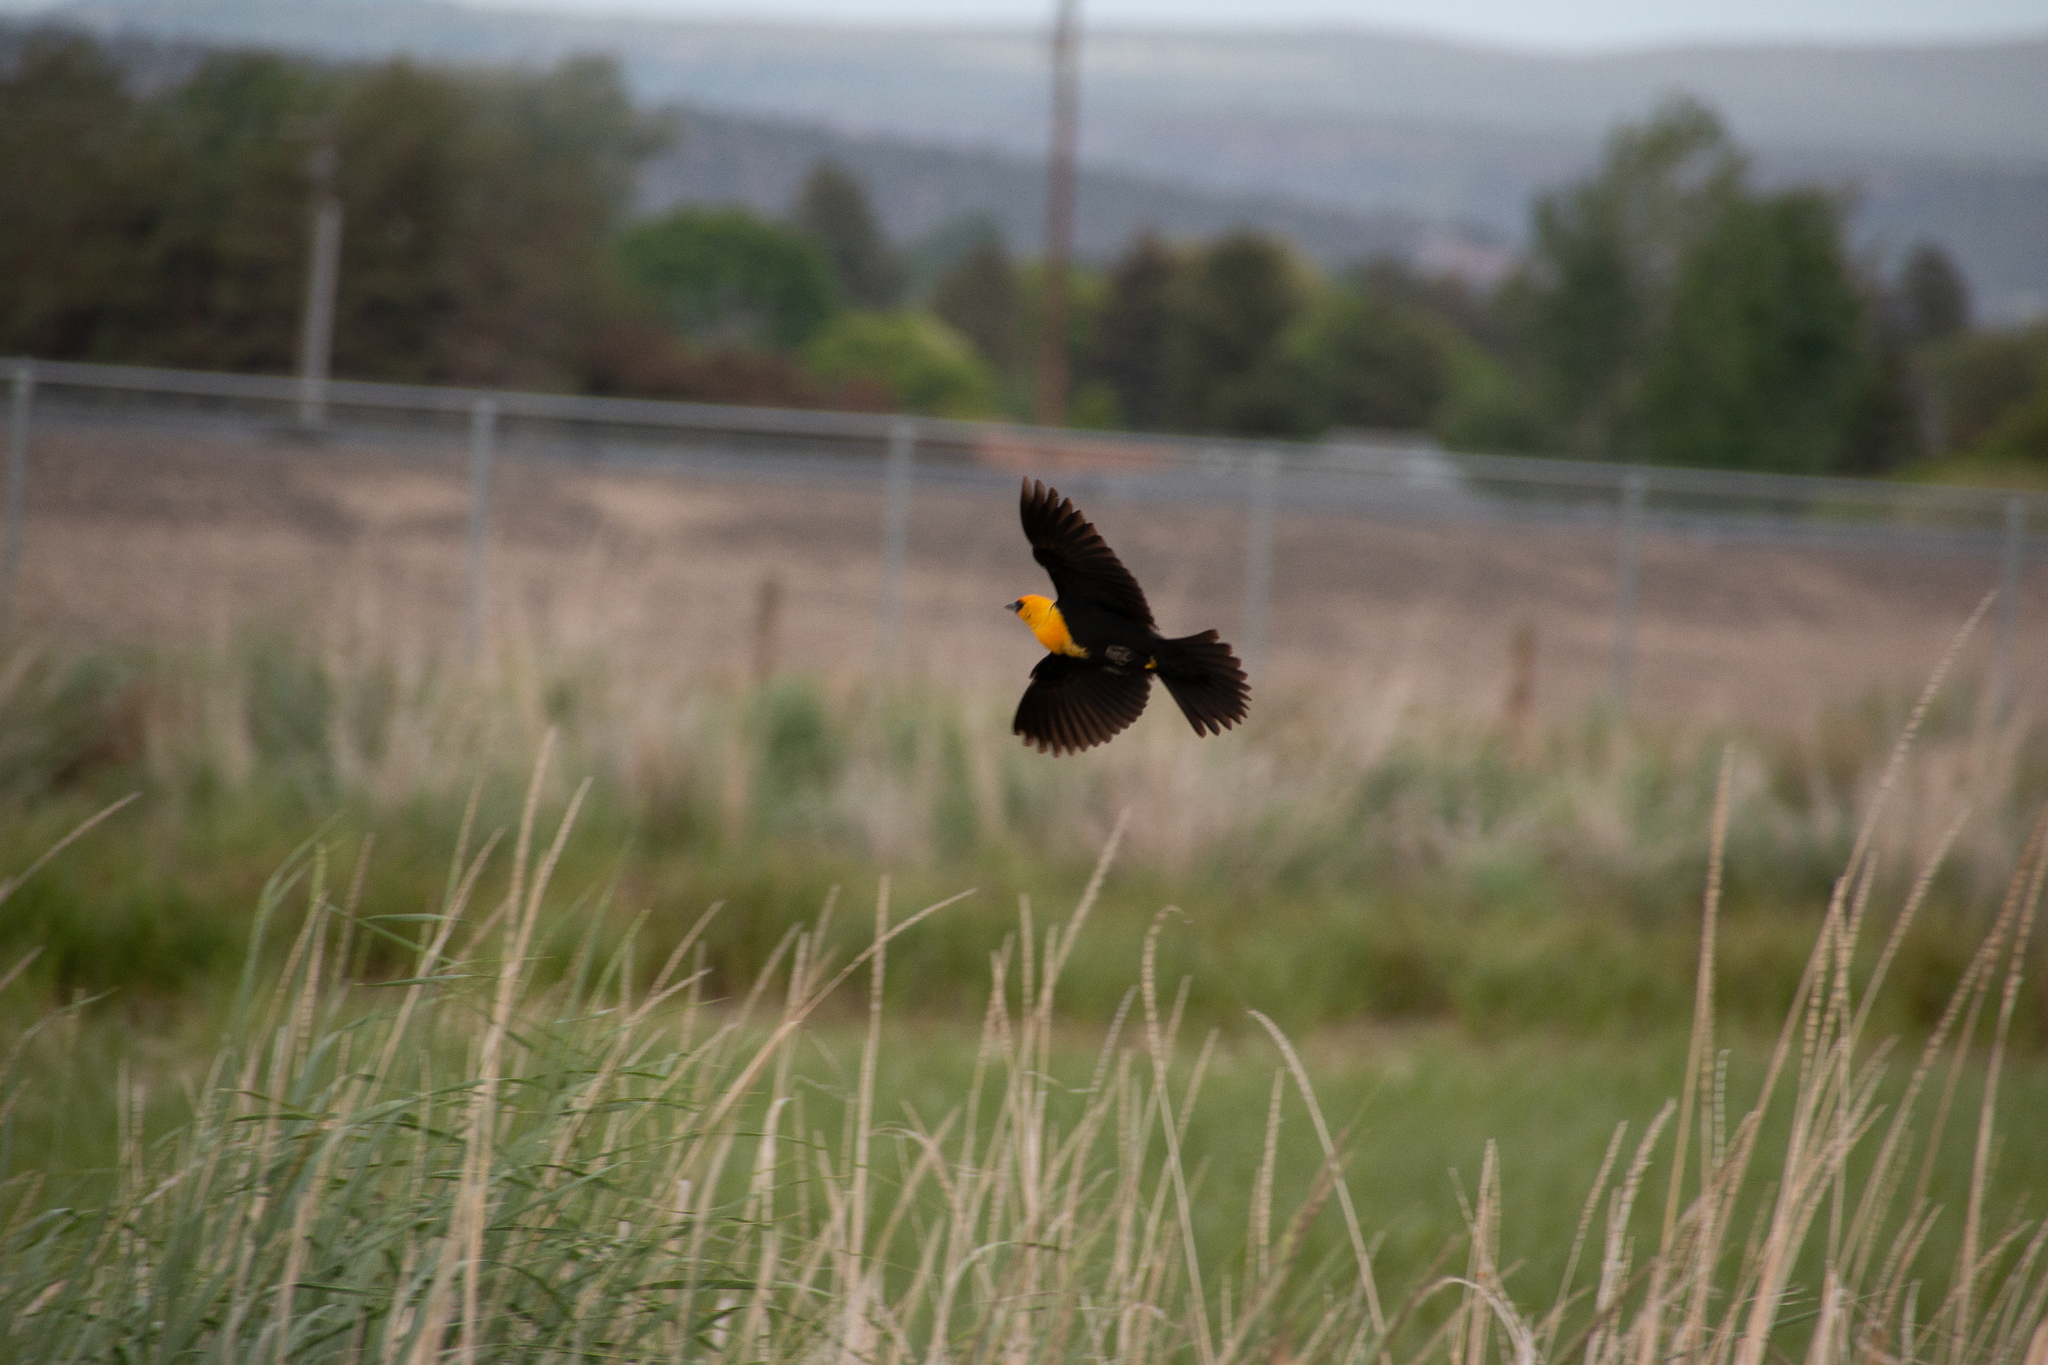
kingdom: Animalia
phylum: Chordata
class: Aves
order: Passeriformes
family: Icteridae
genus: Xanthocephalus
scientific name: Xanthocephalus xanthocephalus
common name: Yellow-headed blackbird
